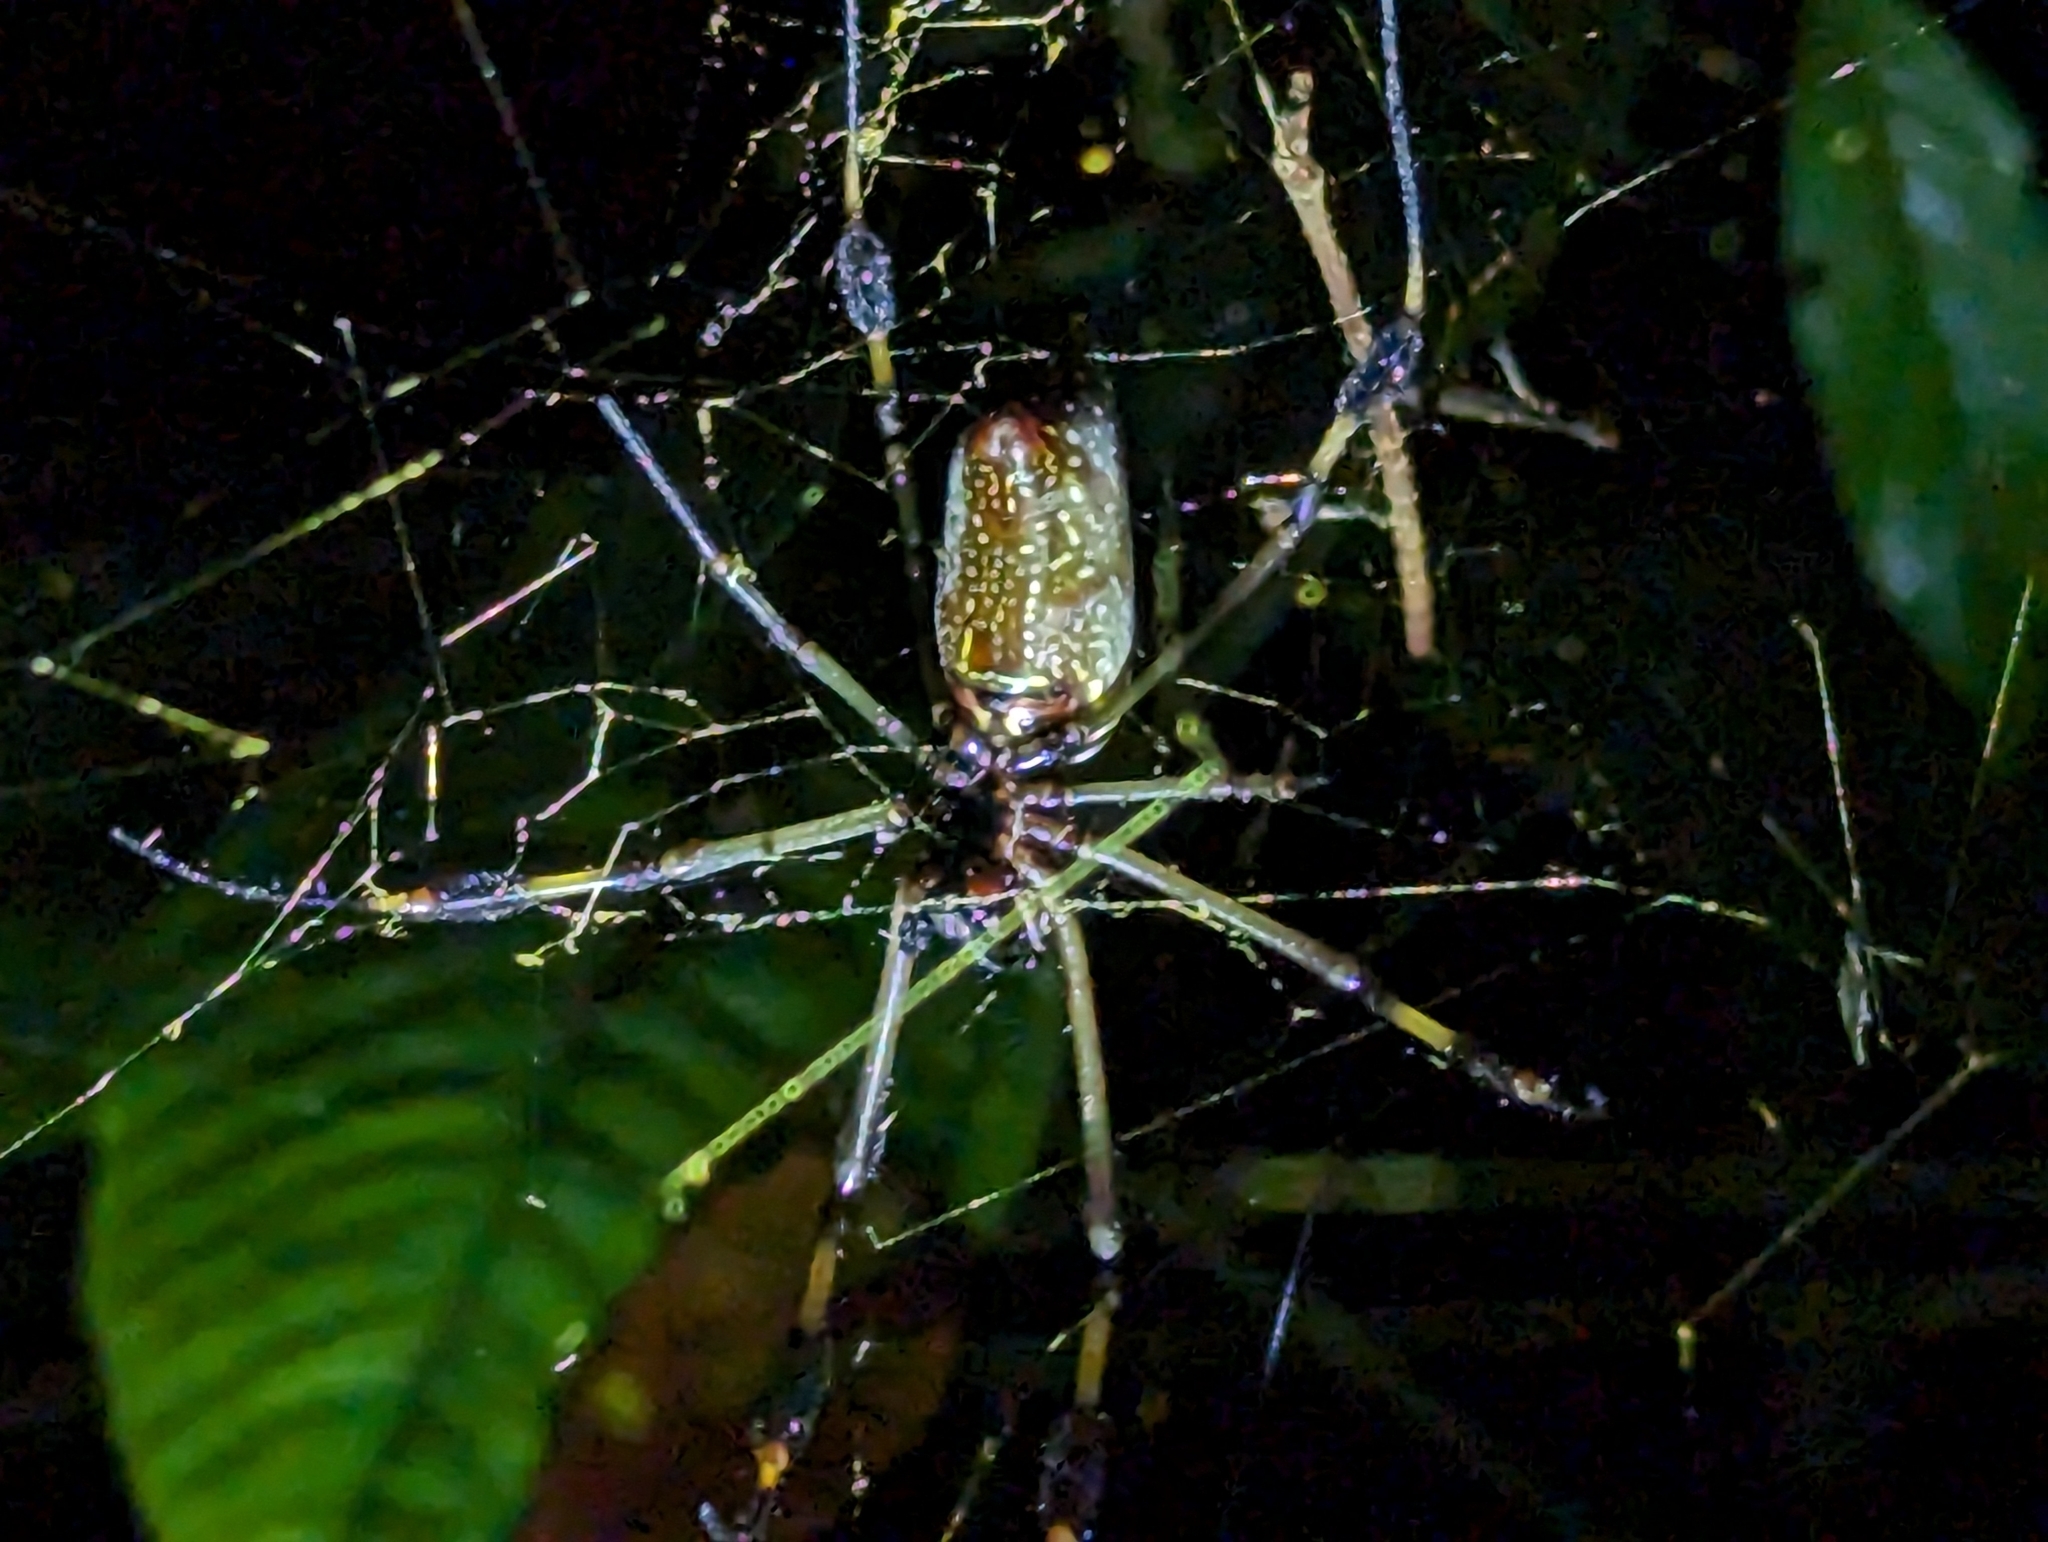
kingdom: Animalia
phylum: Arthropoda
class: Arachnida
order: Araneae
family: Araneidae
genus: Trichonephila
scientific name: Trichonephila clavipes
